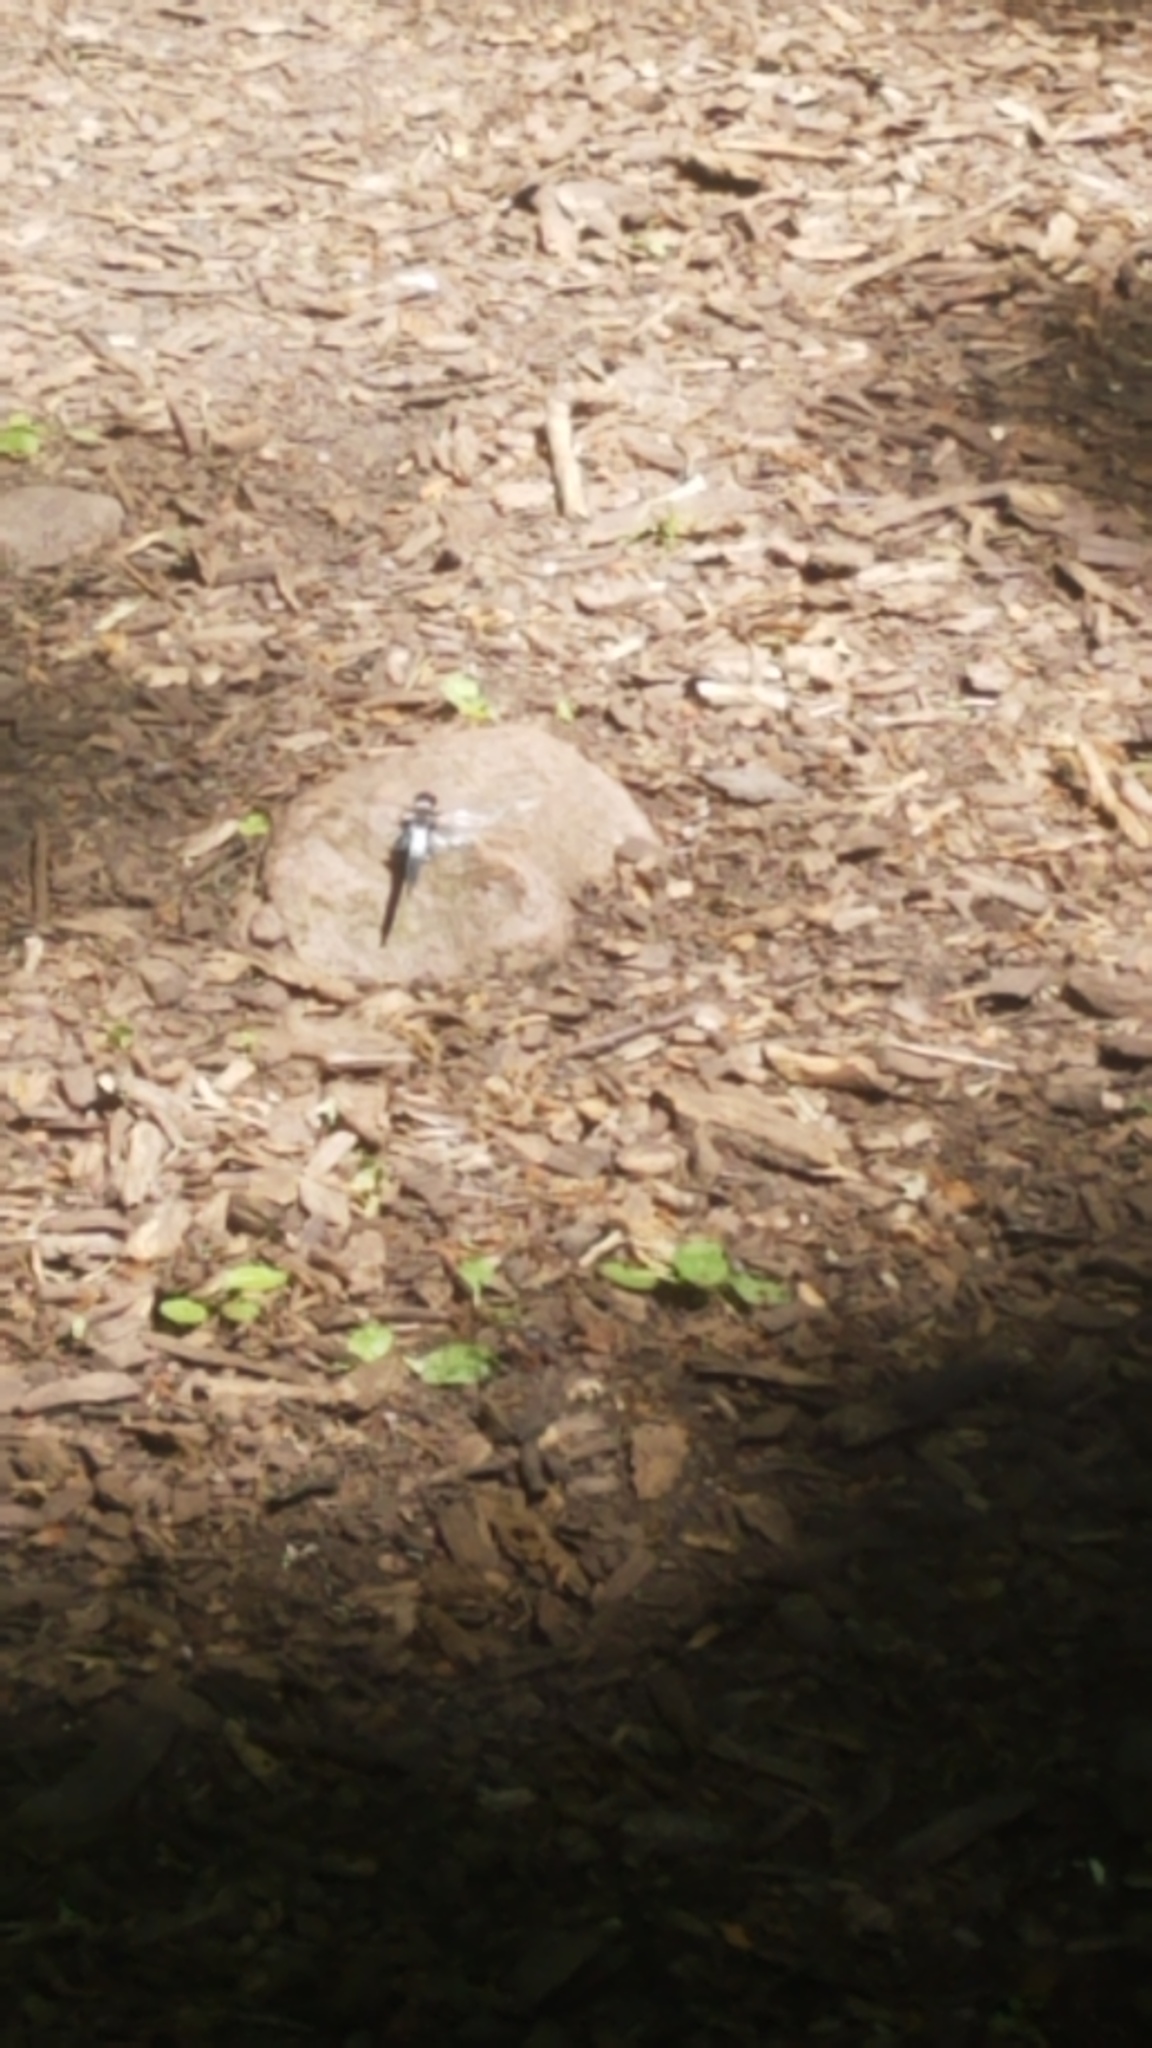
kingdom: Animalia
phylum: Arthropoda
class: Insecta
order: Odonata
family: Libellulidae
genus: Ladona
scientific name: Ladona julia
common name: Chalk-fronted corporal
